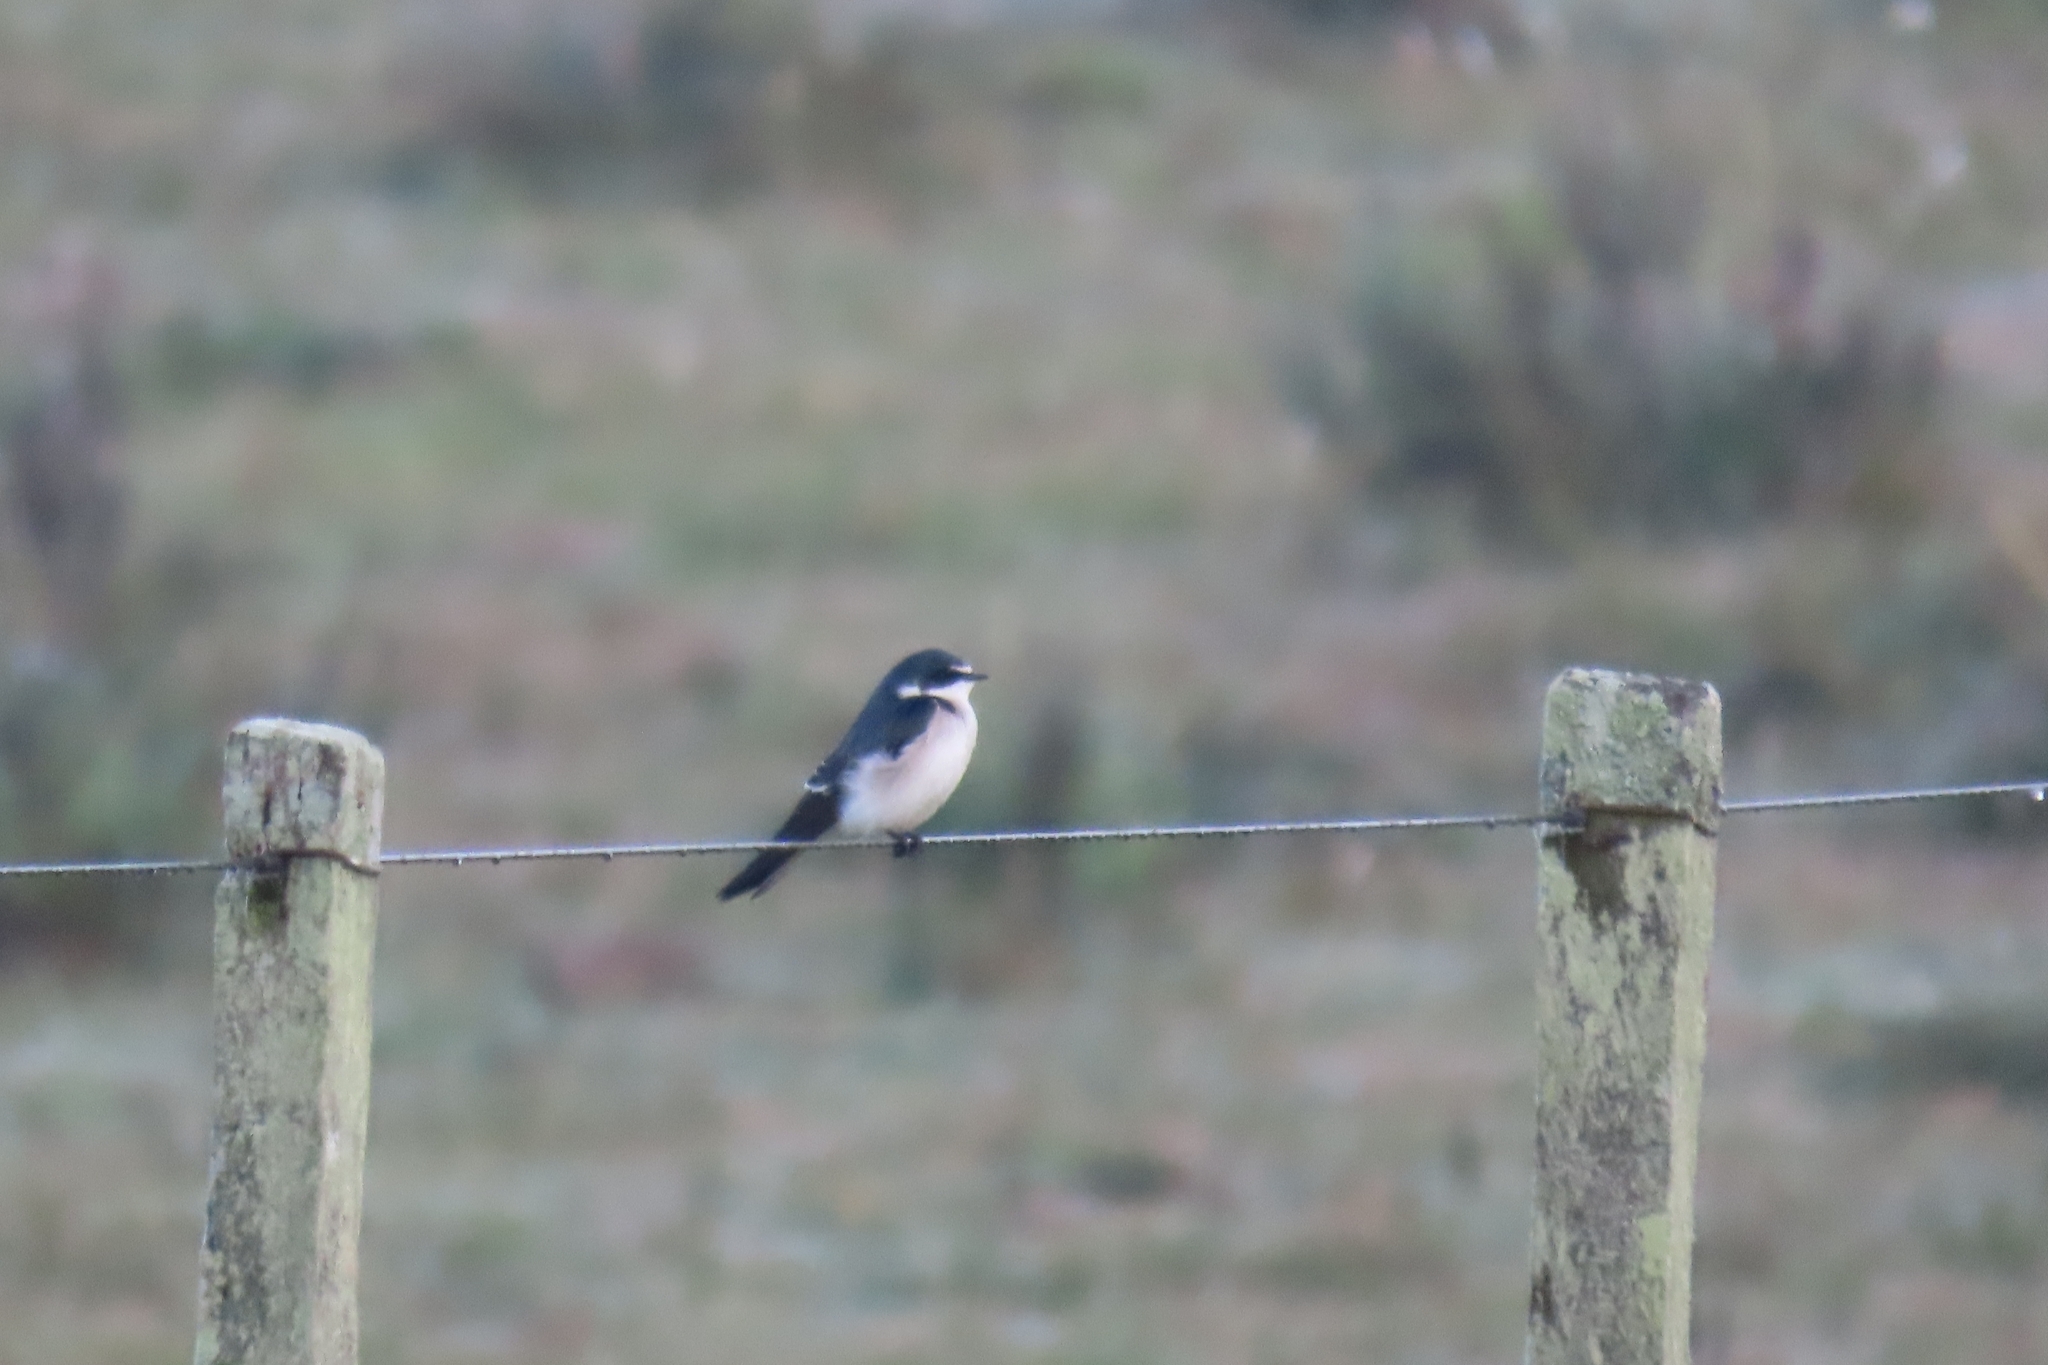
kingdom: Animalia
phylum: Chordata
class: Aves
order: Passeriformes
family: Hirundinidae
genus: Tachycineta
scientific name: Tachycineta leucorrhoa
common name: White-rumped swallow
